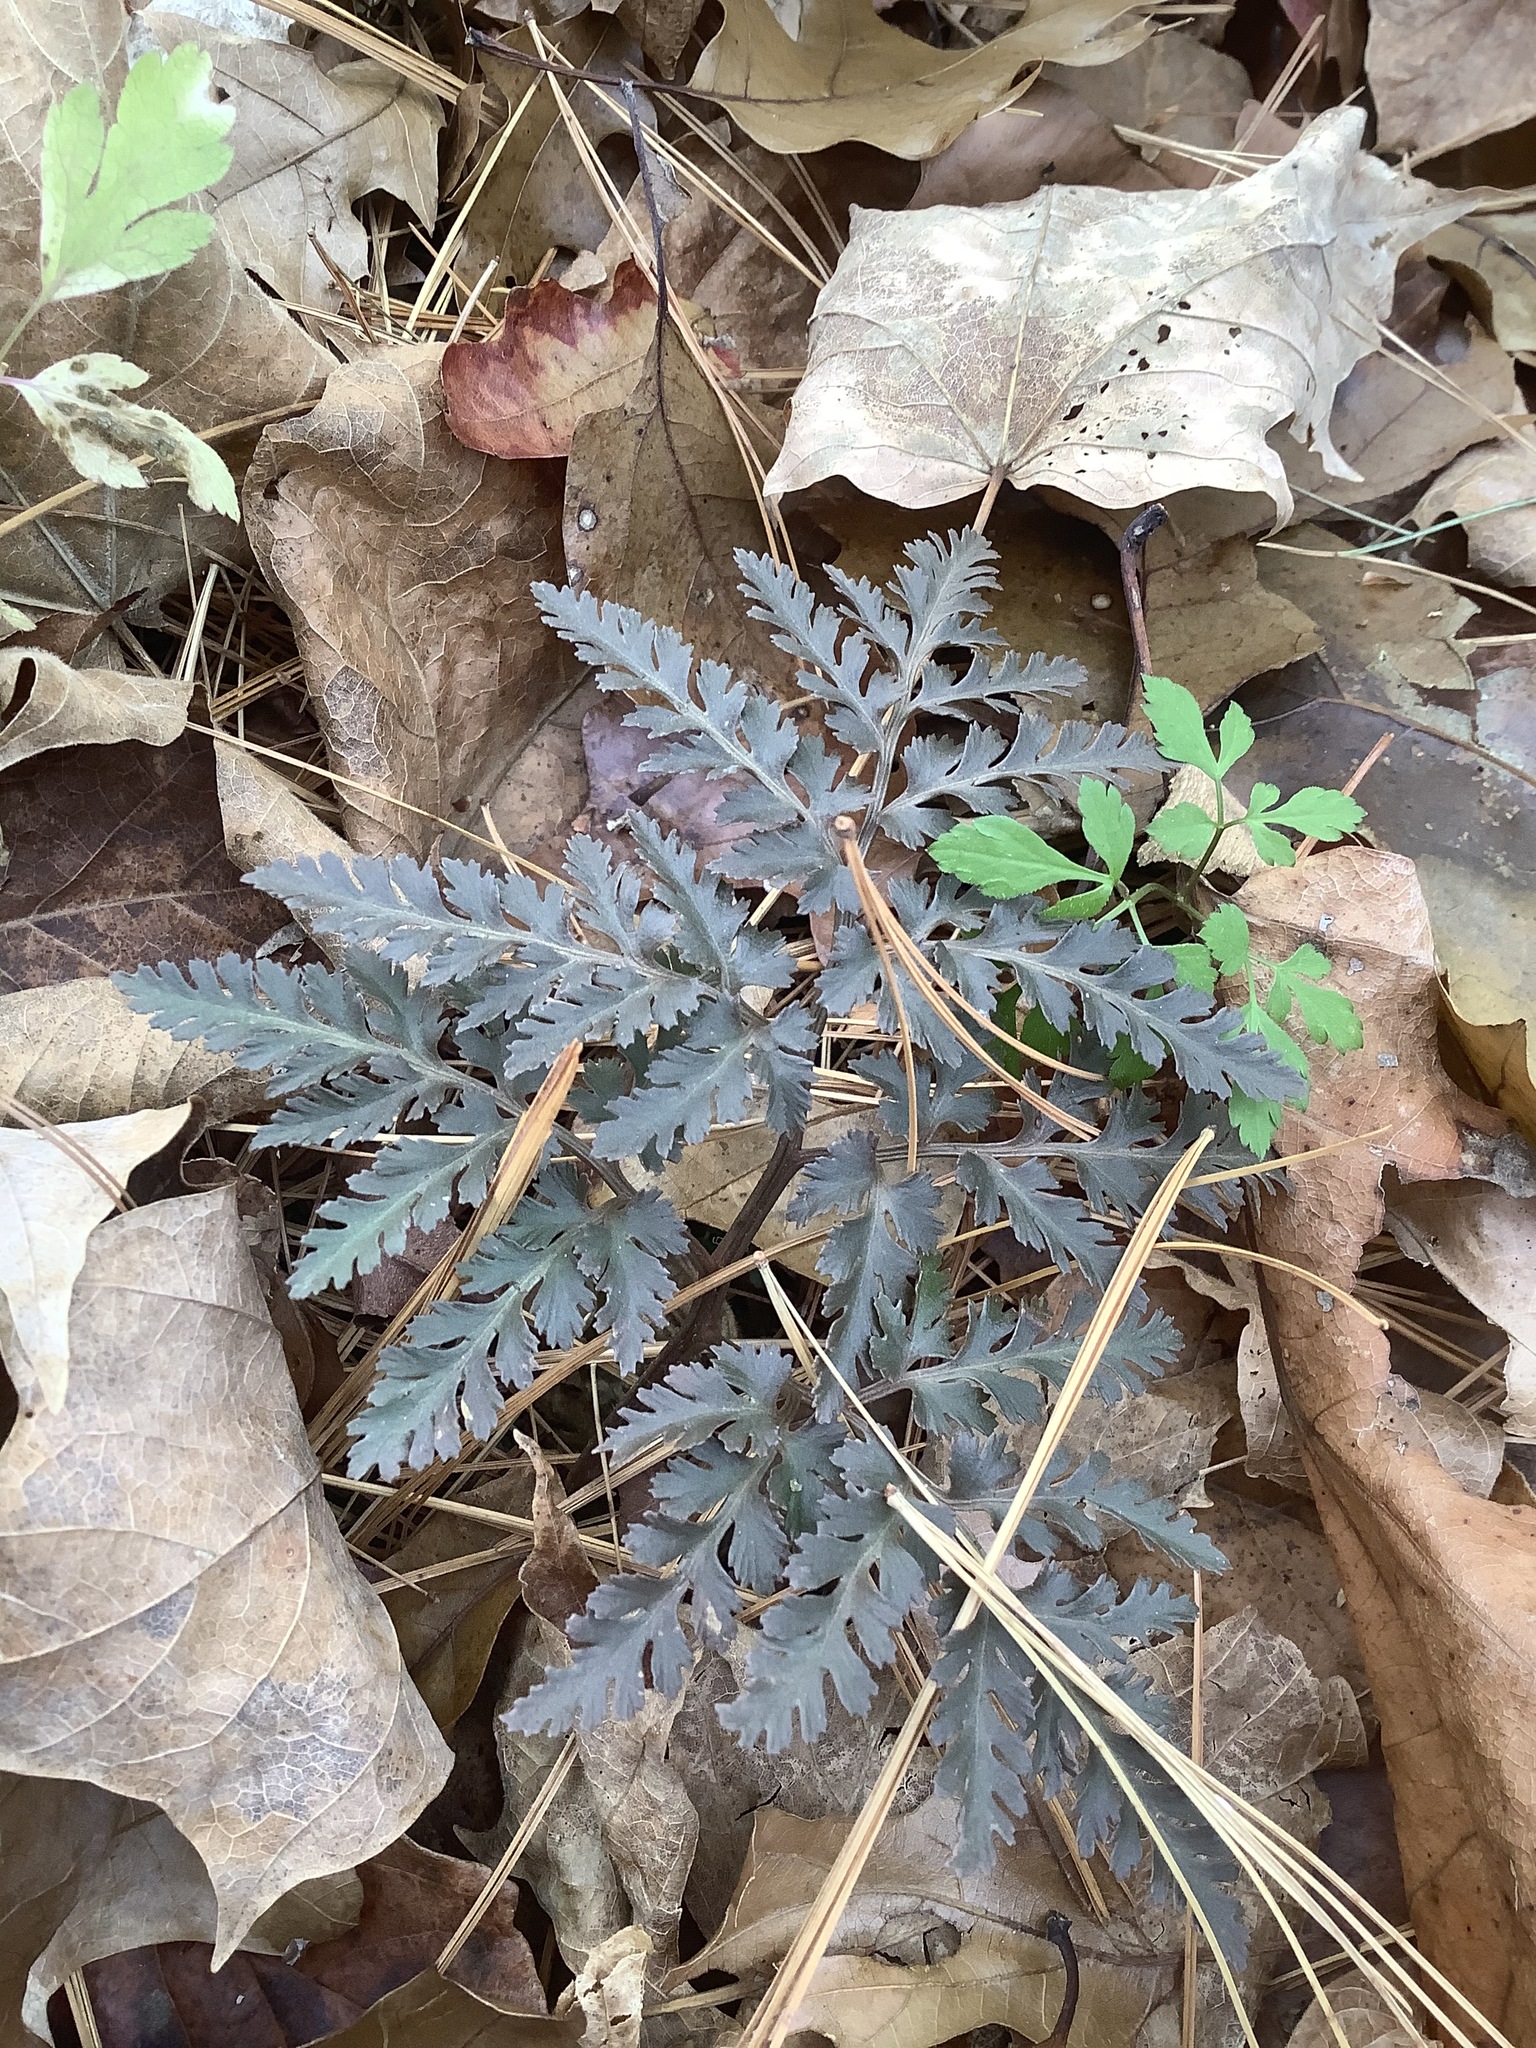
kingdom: Plantae
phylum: Tracheophyta
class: Polypodiopsida
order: Ophioglossales
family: Ophioglossaceae
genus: Sceptridium
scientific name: Sceptridium dissectum
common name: Cut-leaved grapefern
